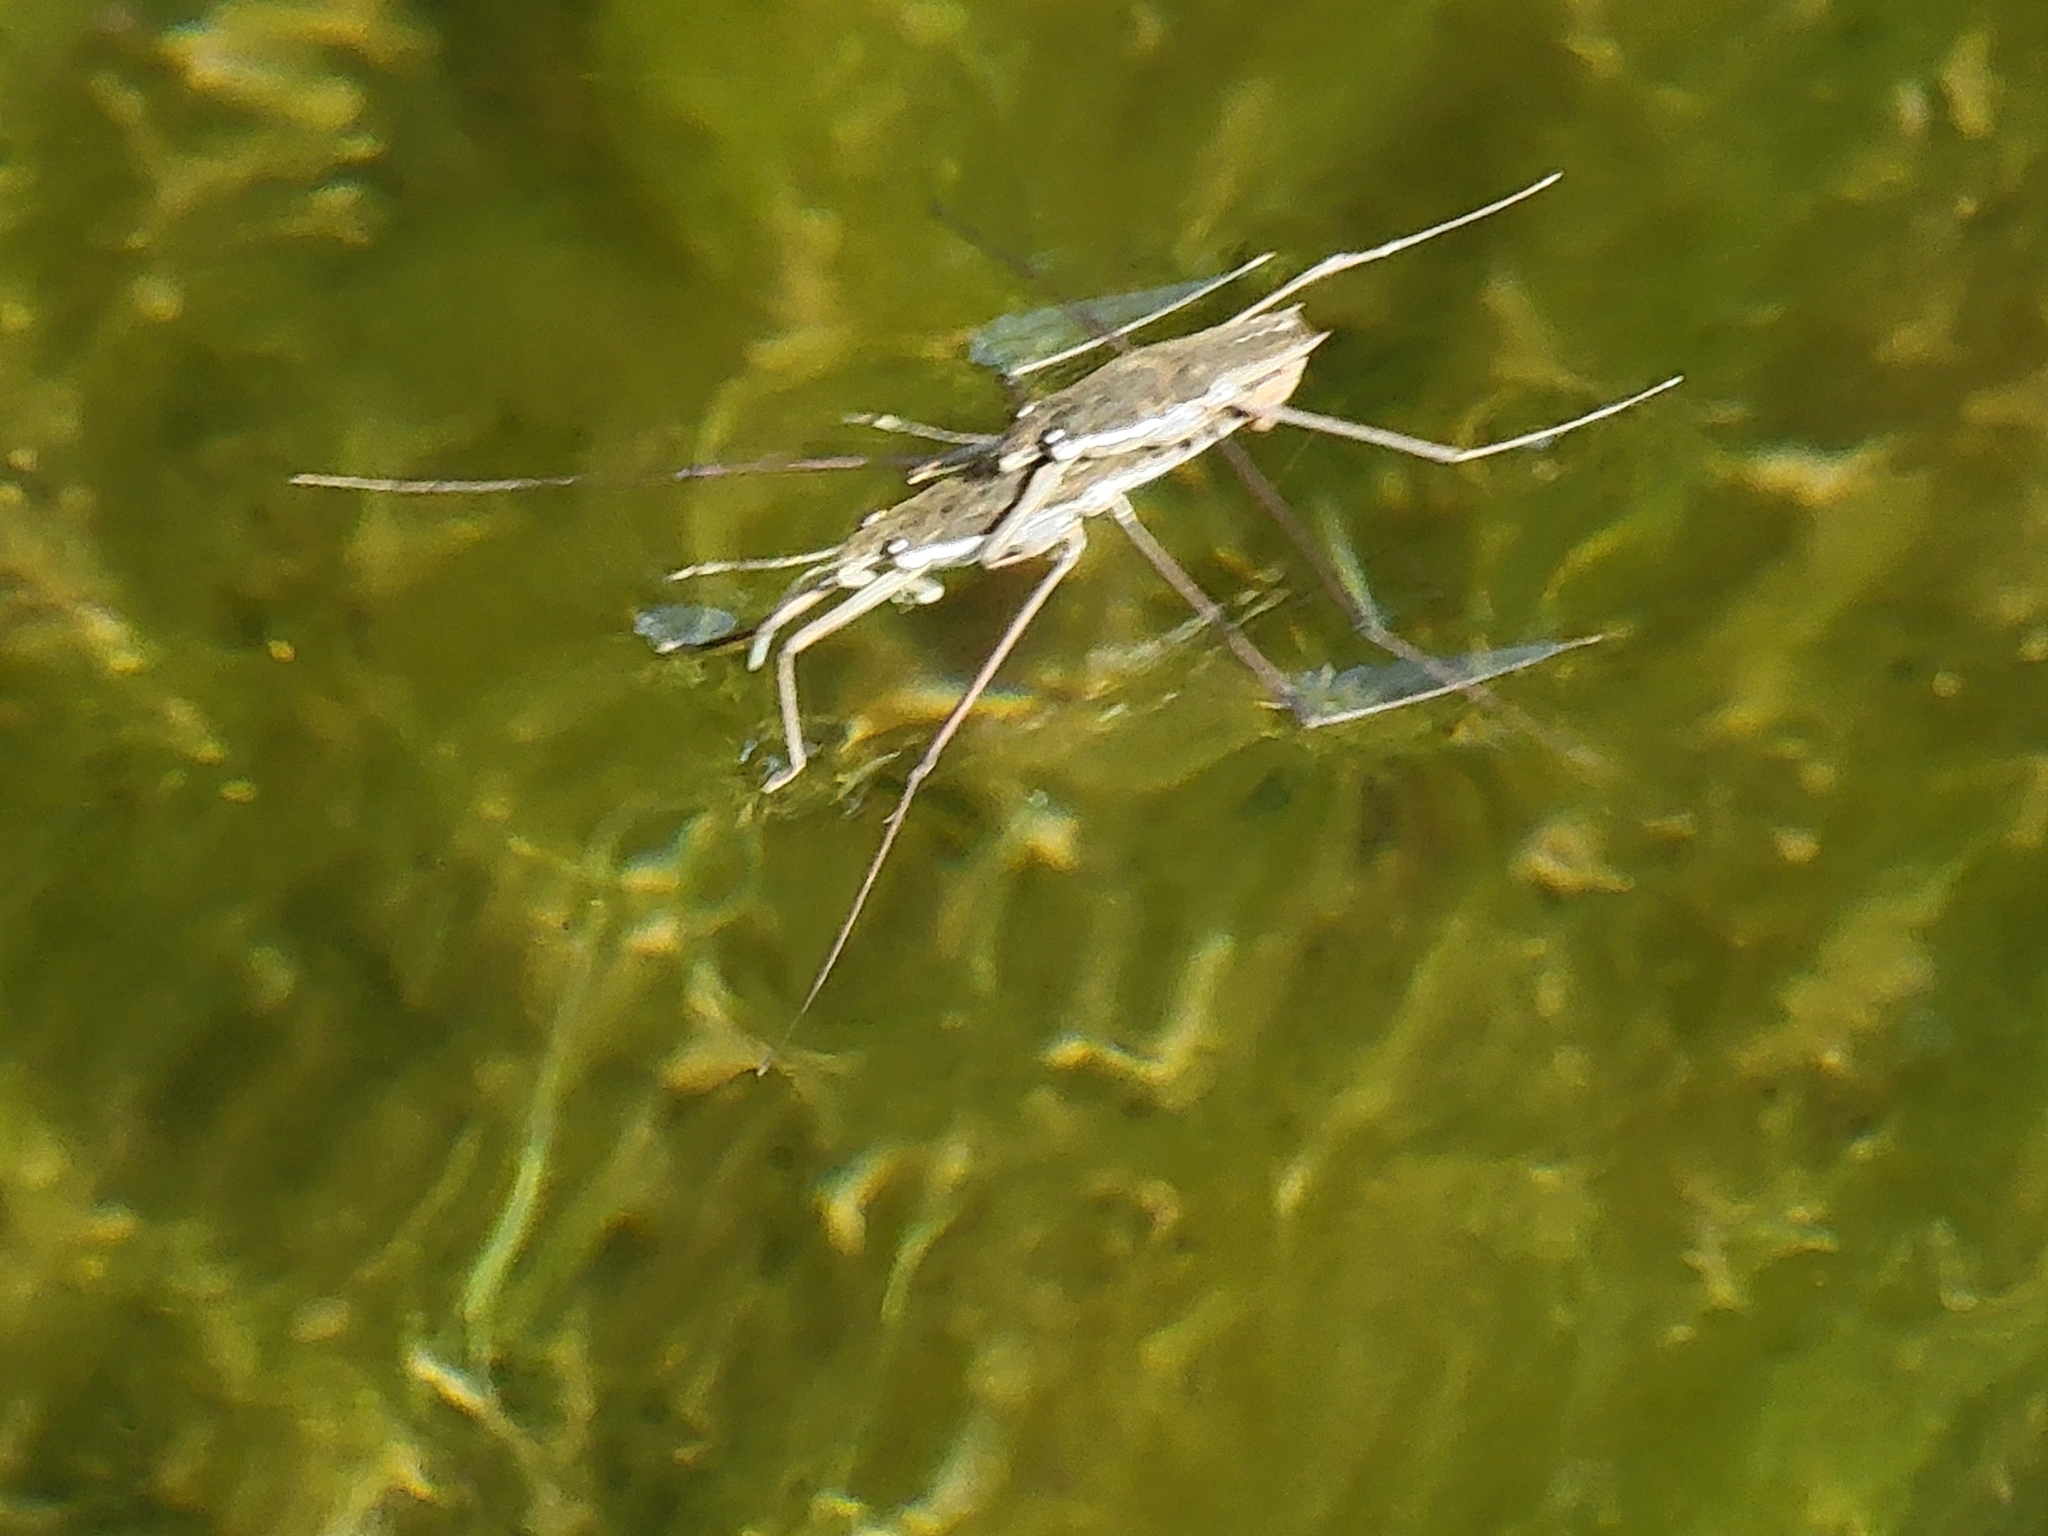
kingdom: Animalia
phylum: Arthropoda
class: Insecta
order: Hemiptera
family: Gerridae
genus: Aquarius
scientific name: Aquarius remigis
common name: Common water strider
